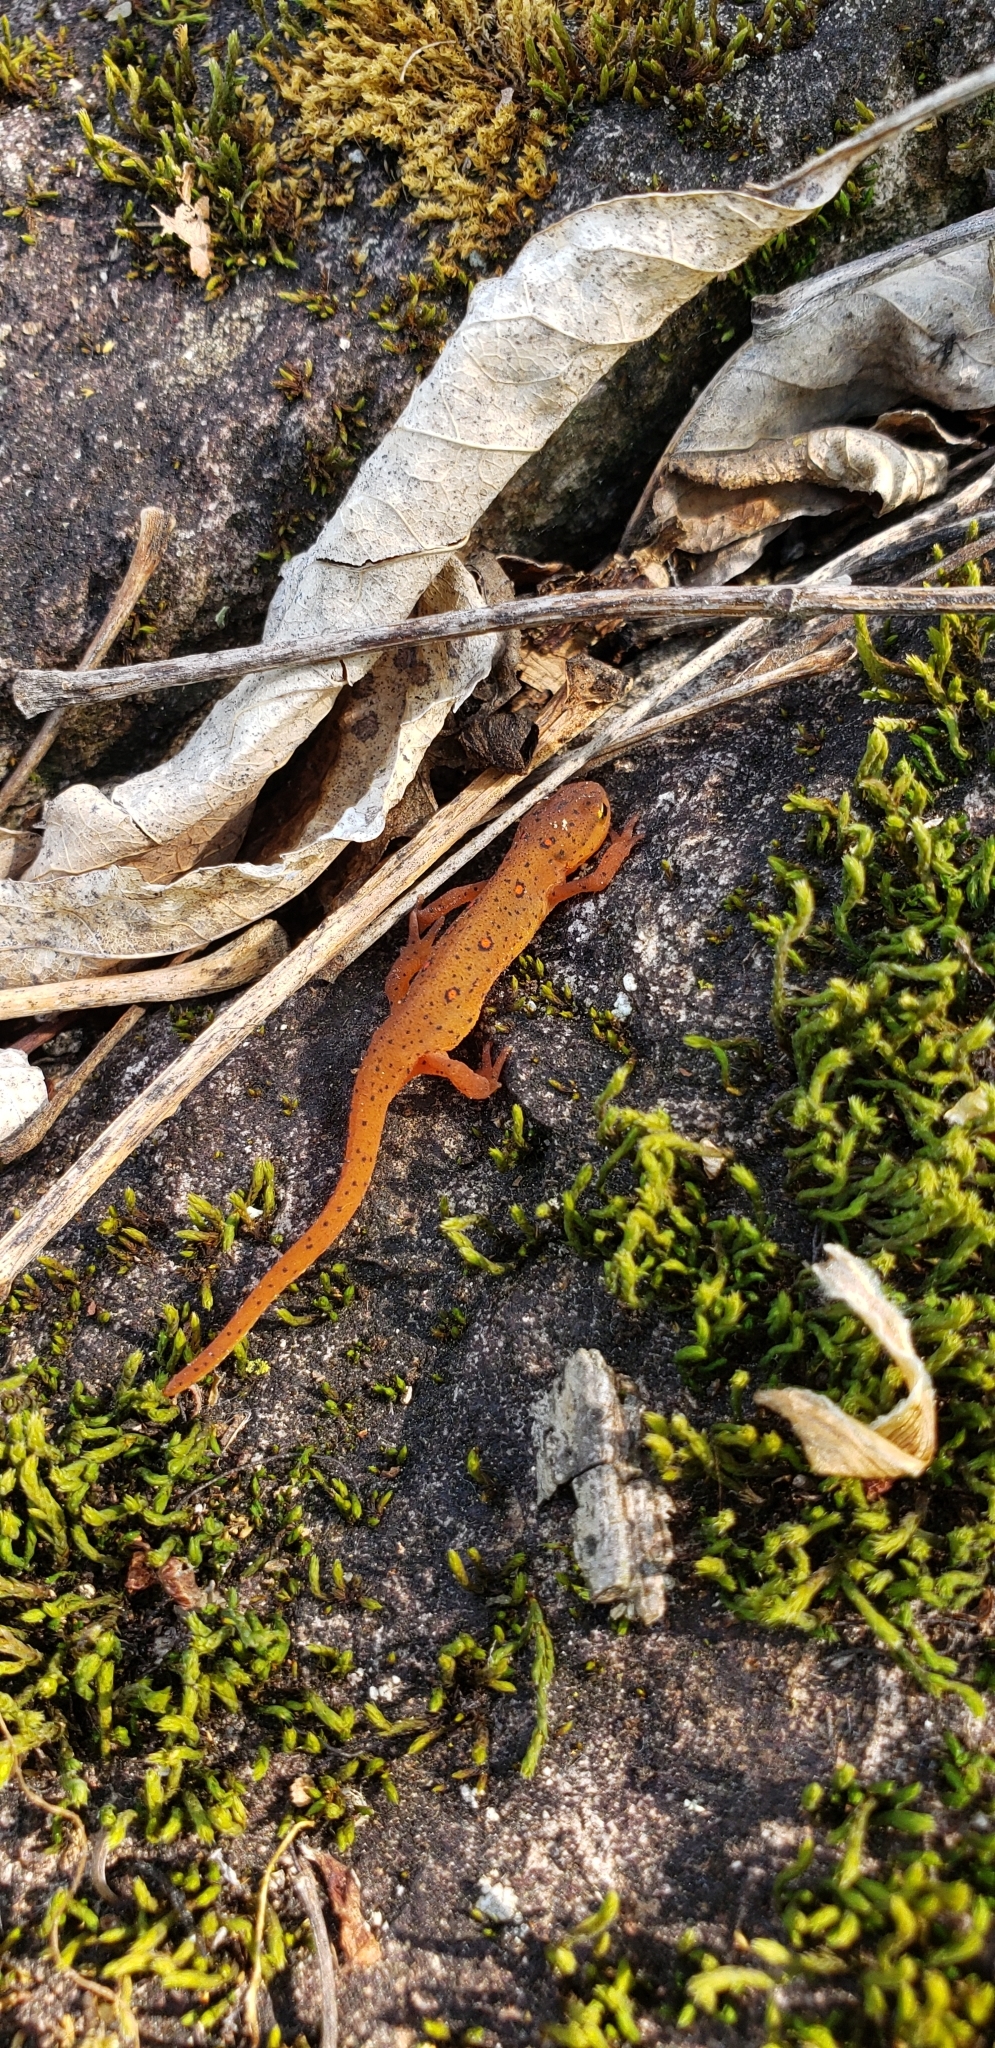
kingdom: Animalia
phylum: Chordata
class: Amphibia
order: Caudata
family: Salamandridae
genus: Notophthalmus
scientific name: Notophthalmus viridescens
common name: Eastern newt
